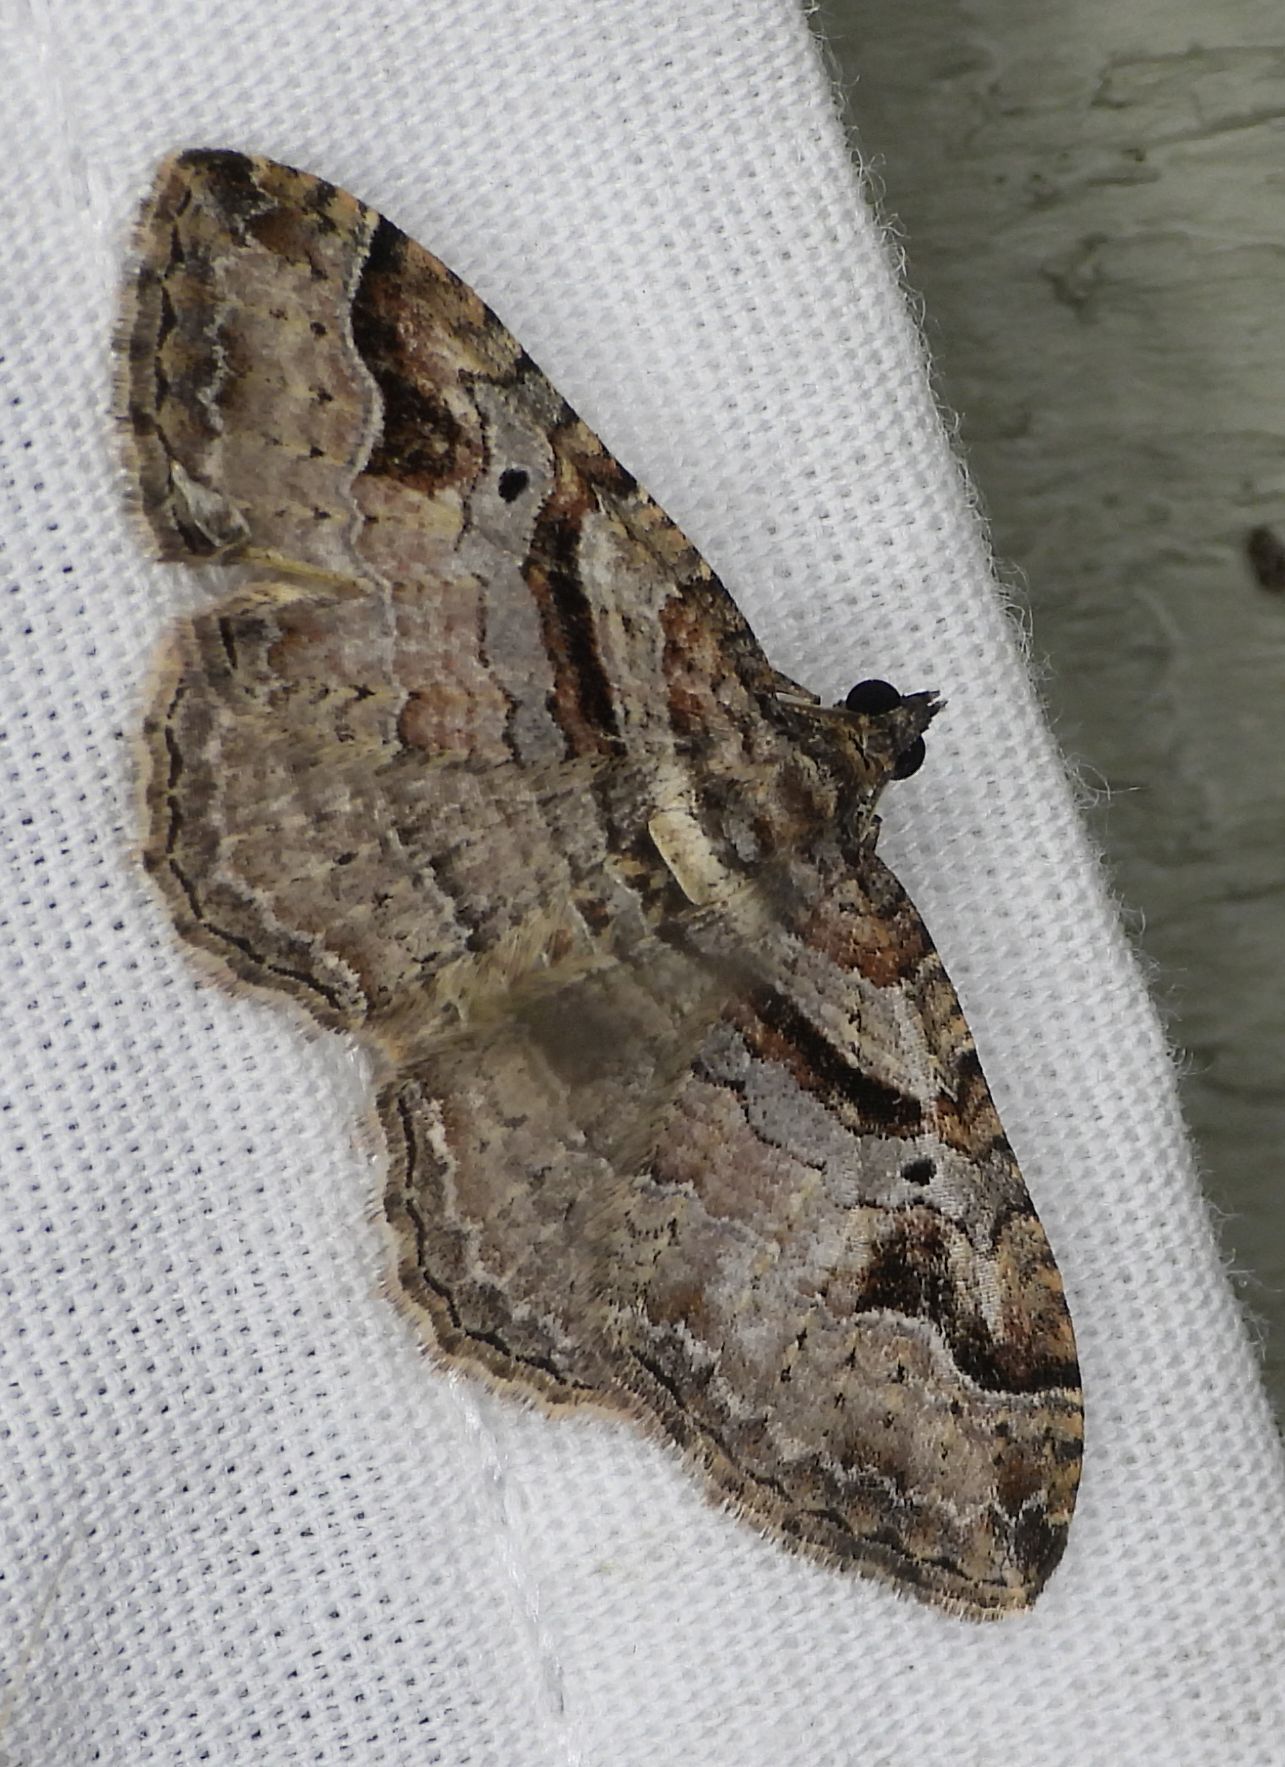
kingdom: Animalia
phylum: Arthropoda
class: Insecta
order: Lepidoptera
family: Geometridae
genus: Costaconvexa
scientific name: Costaconvexa centrostrigaria
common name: Bent-line carpet
